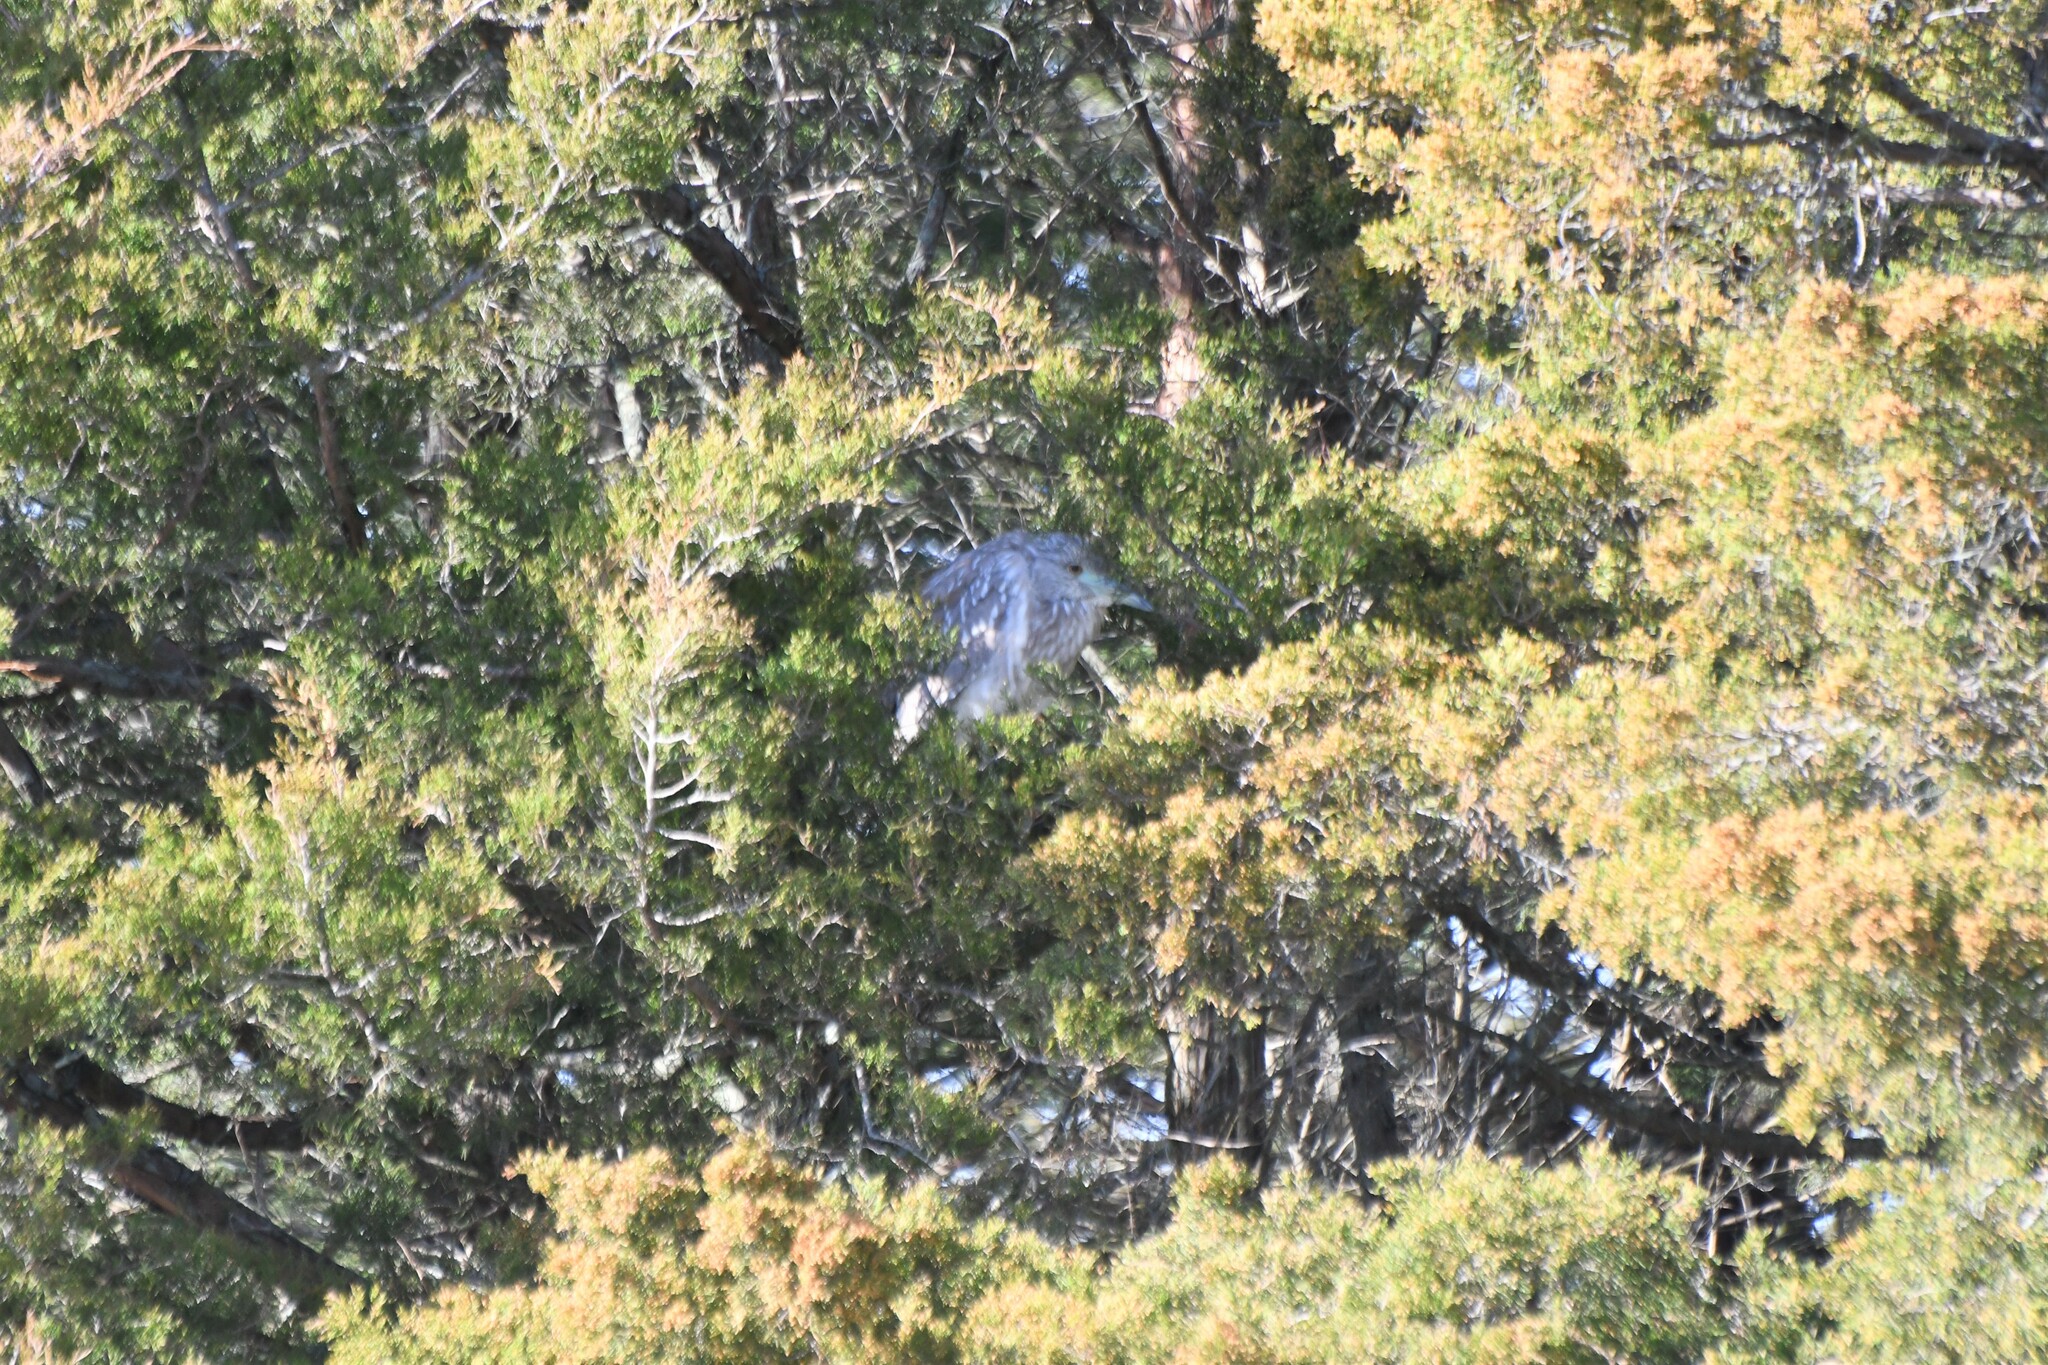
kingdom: Animalia
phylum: Chordata
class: Aves
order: Pelecaniformes
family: Ardeidae
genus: Nycticorax
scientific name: Nycticorax nycticorax
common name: Black-crowned night heron
